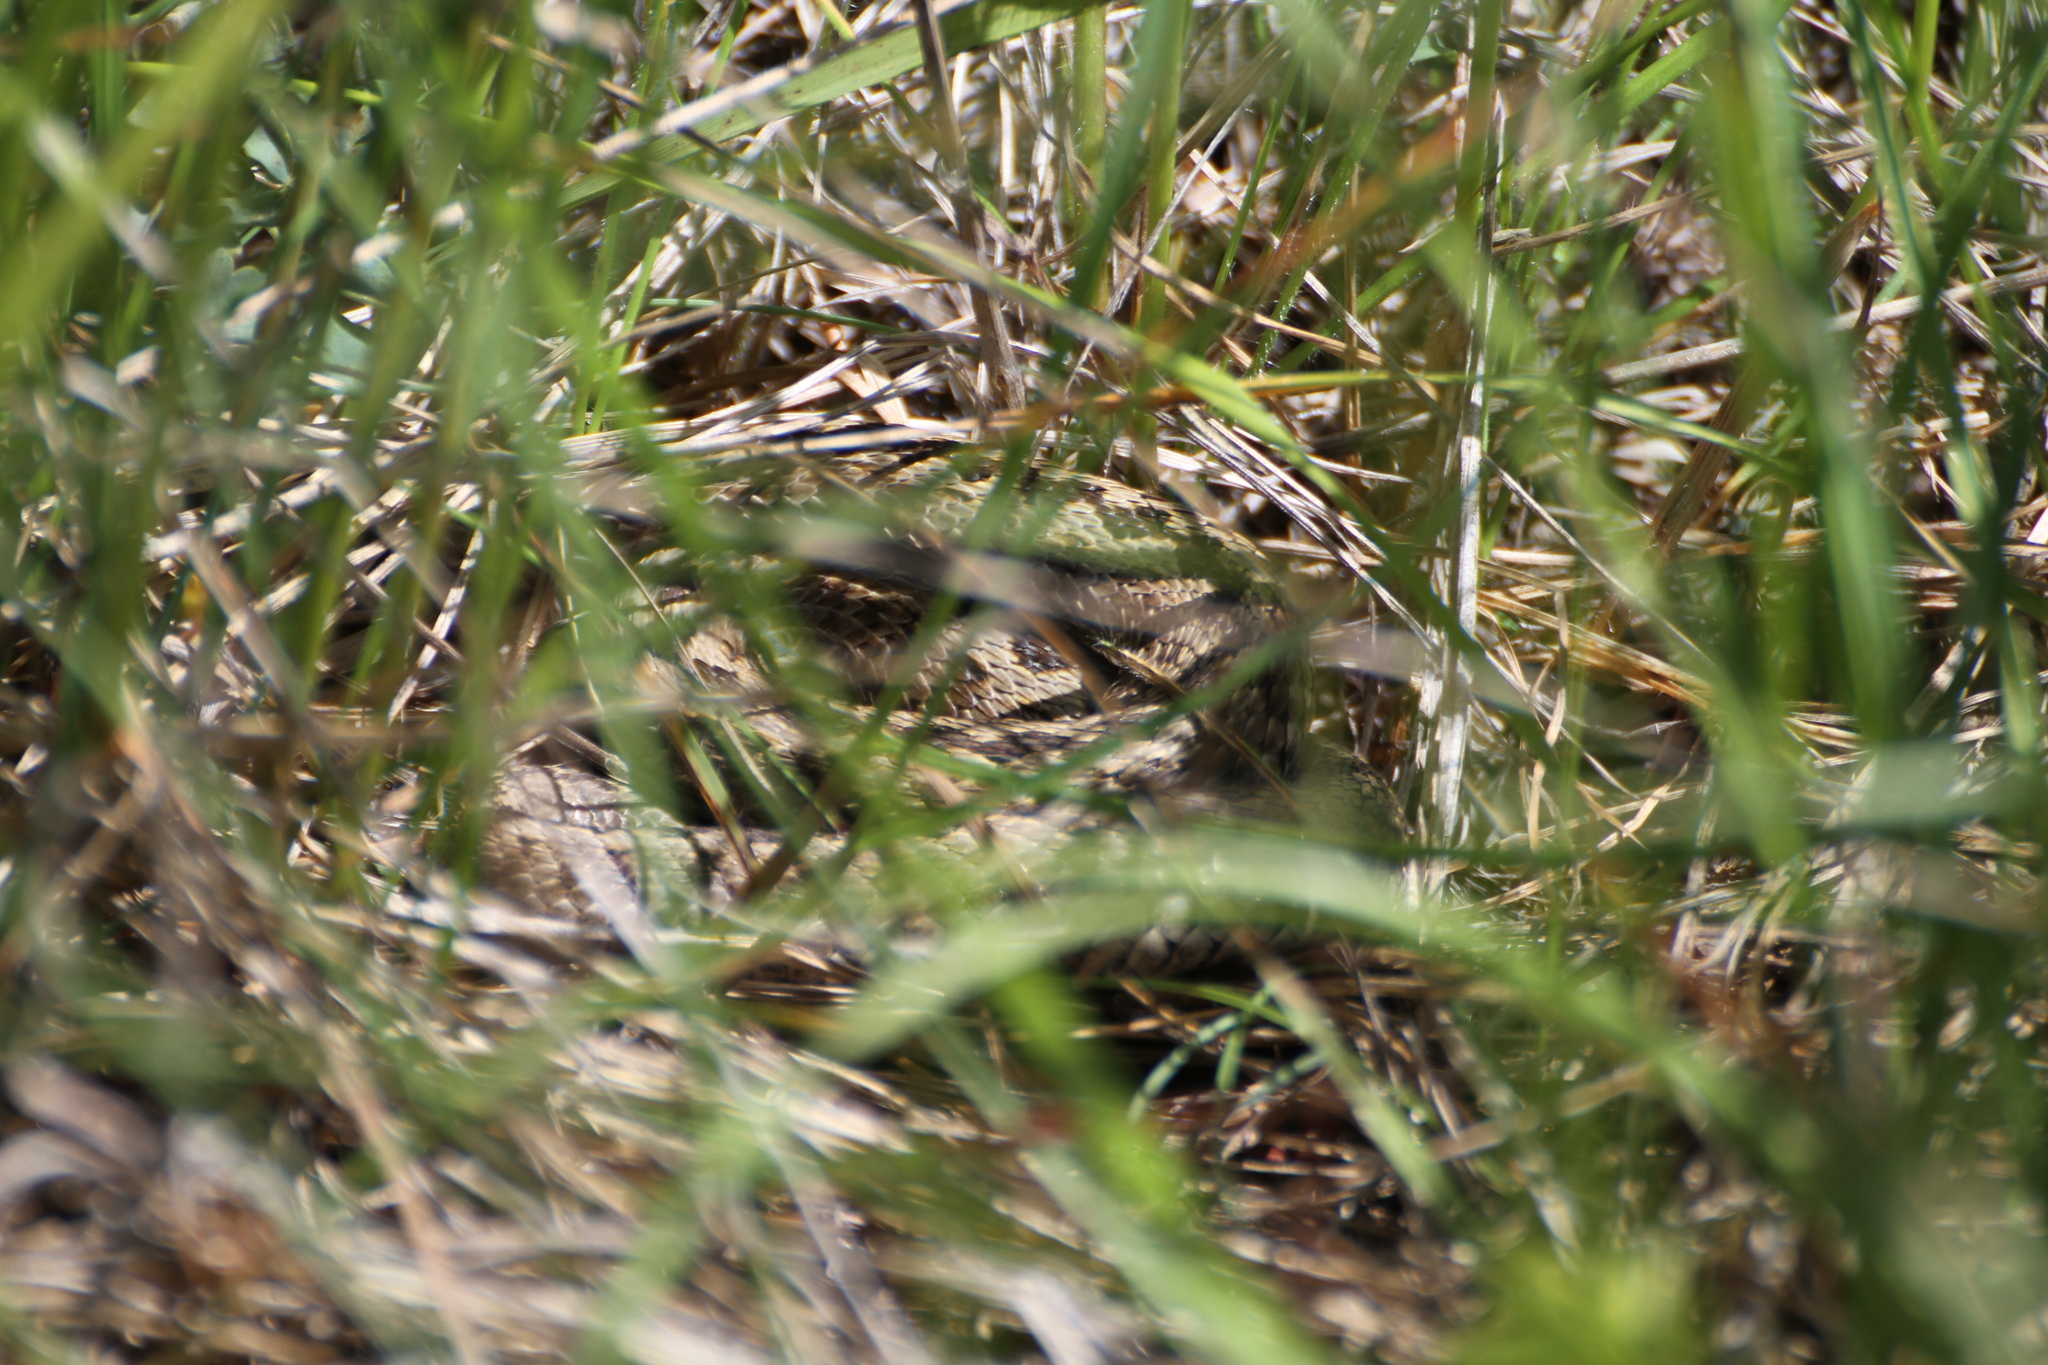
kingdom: Animalia
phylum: Chordata
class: Squamata
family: Viperidae
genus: Vipera
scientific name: Vipera ursinii
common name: Meadow viper
